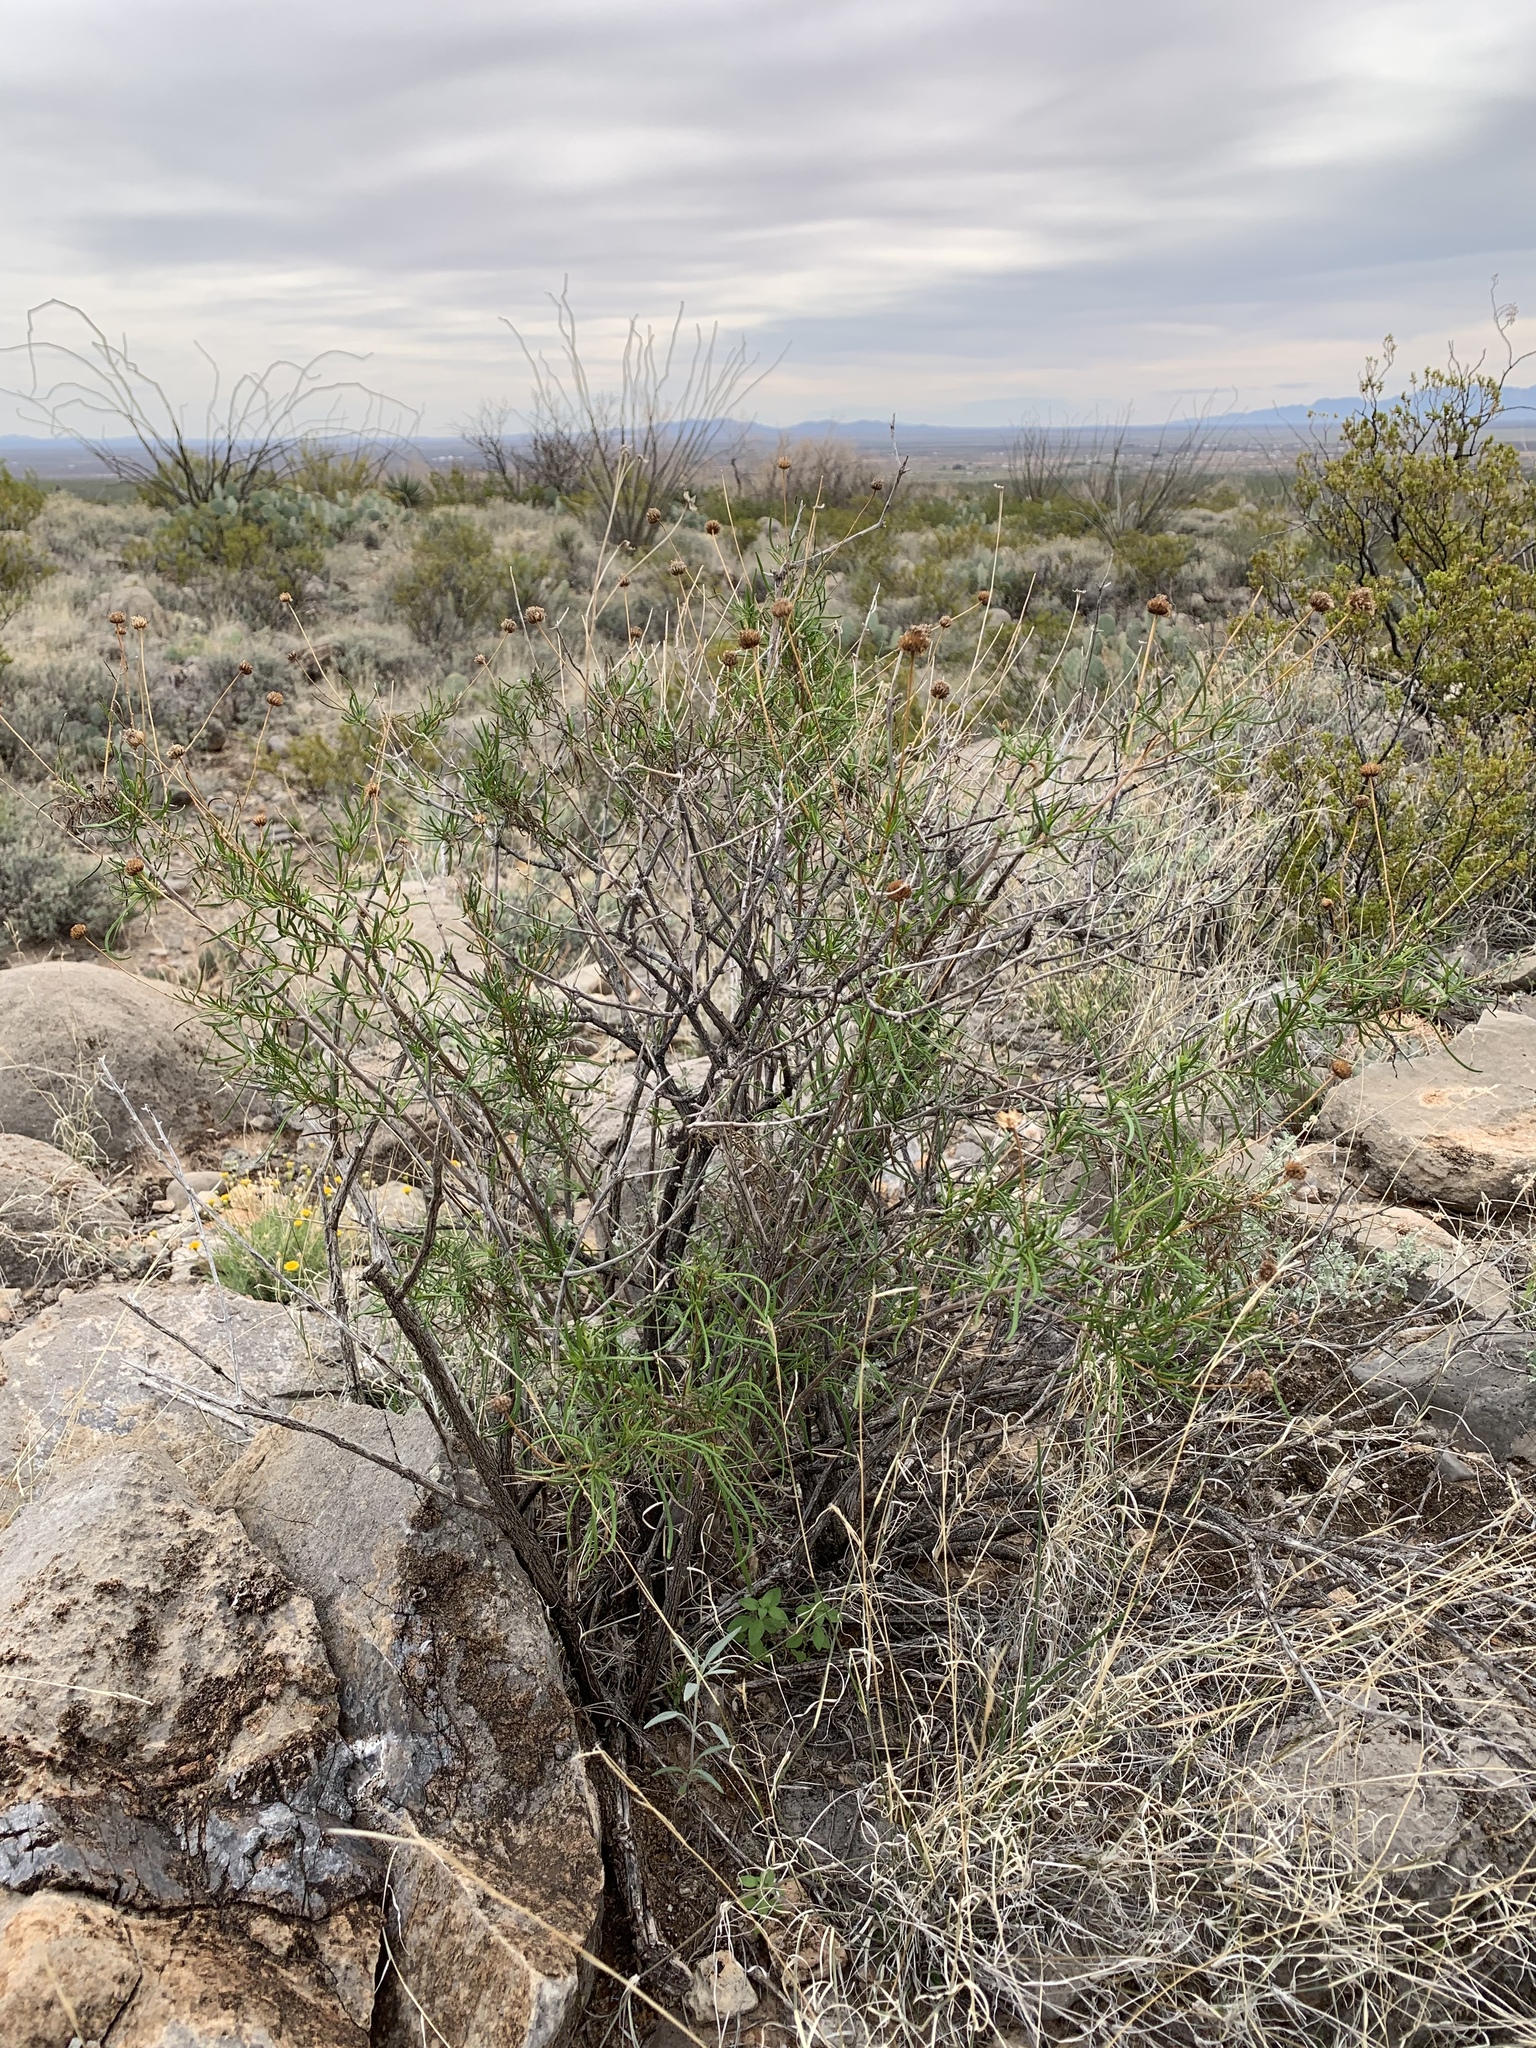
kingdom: Plantae
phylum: Tracheophyta
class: Magnoliopsida
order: Asterales
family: Asteraceae
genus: Sidneya
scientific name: Sidneya tenuifolia
